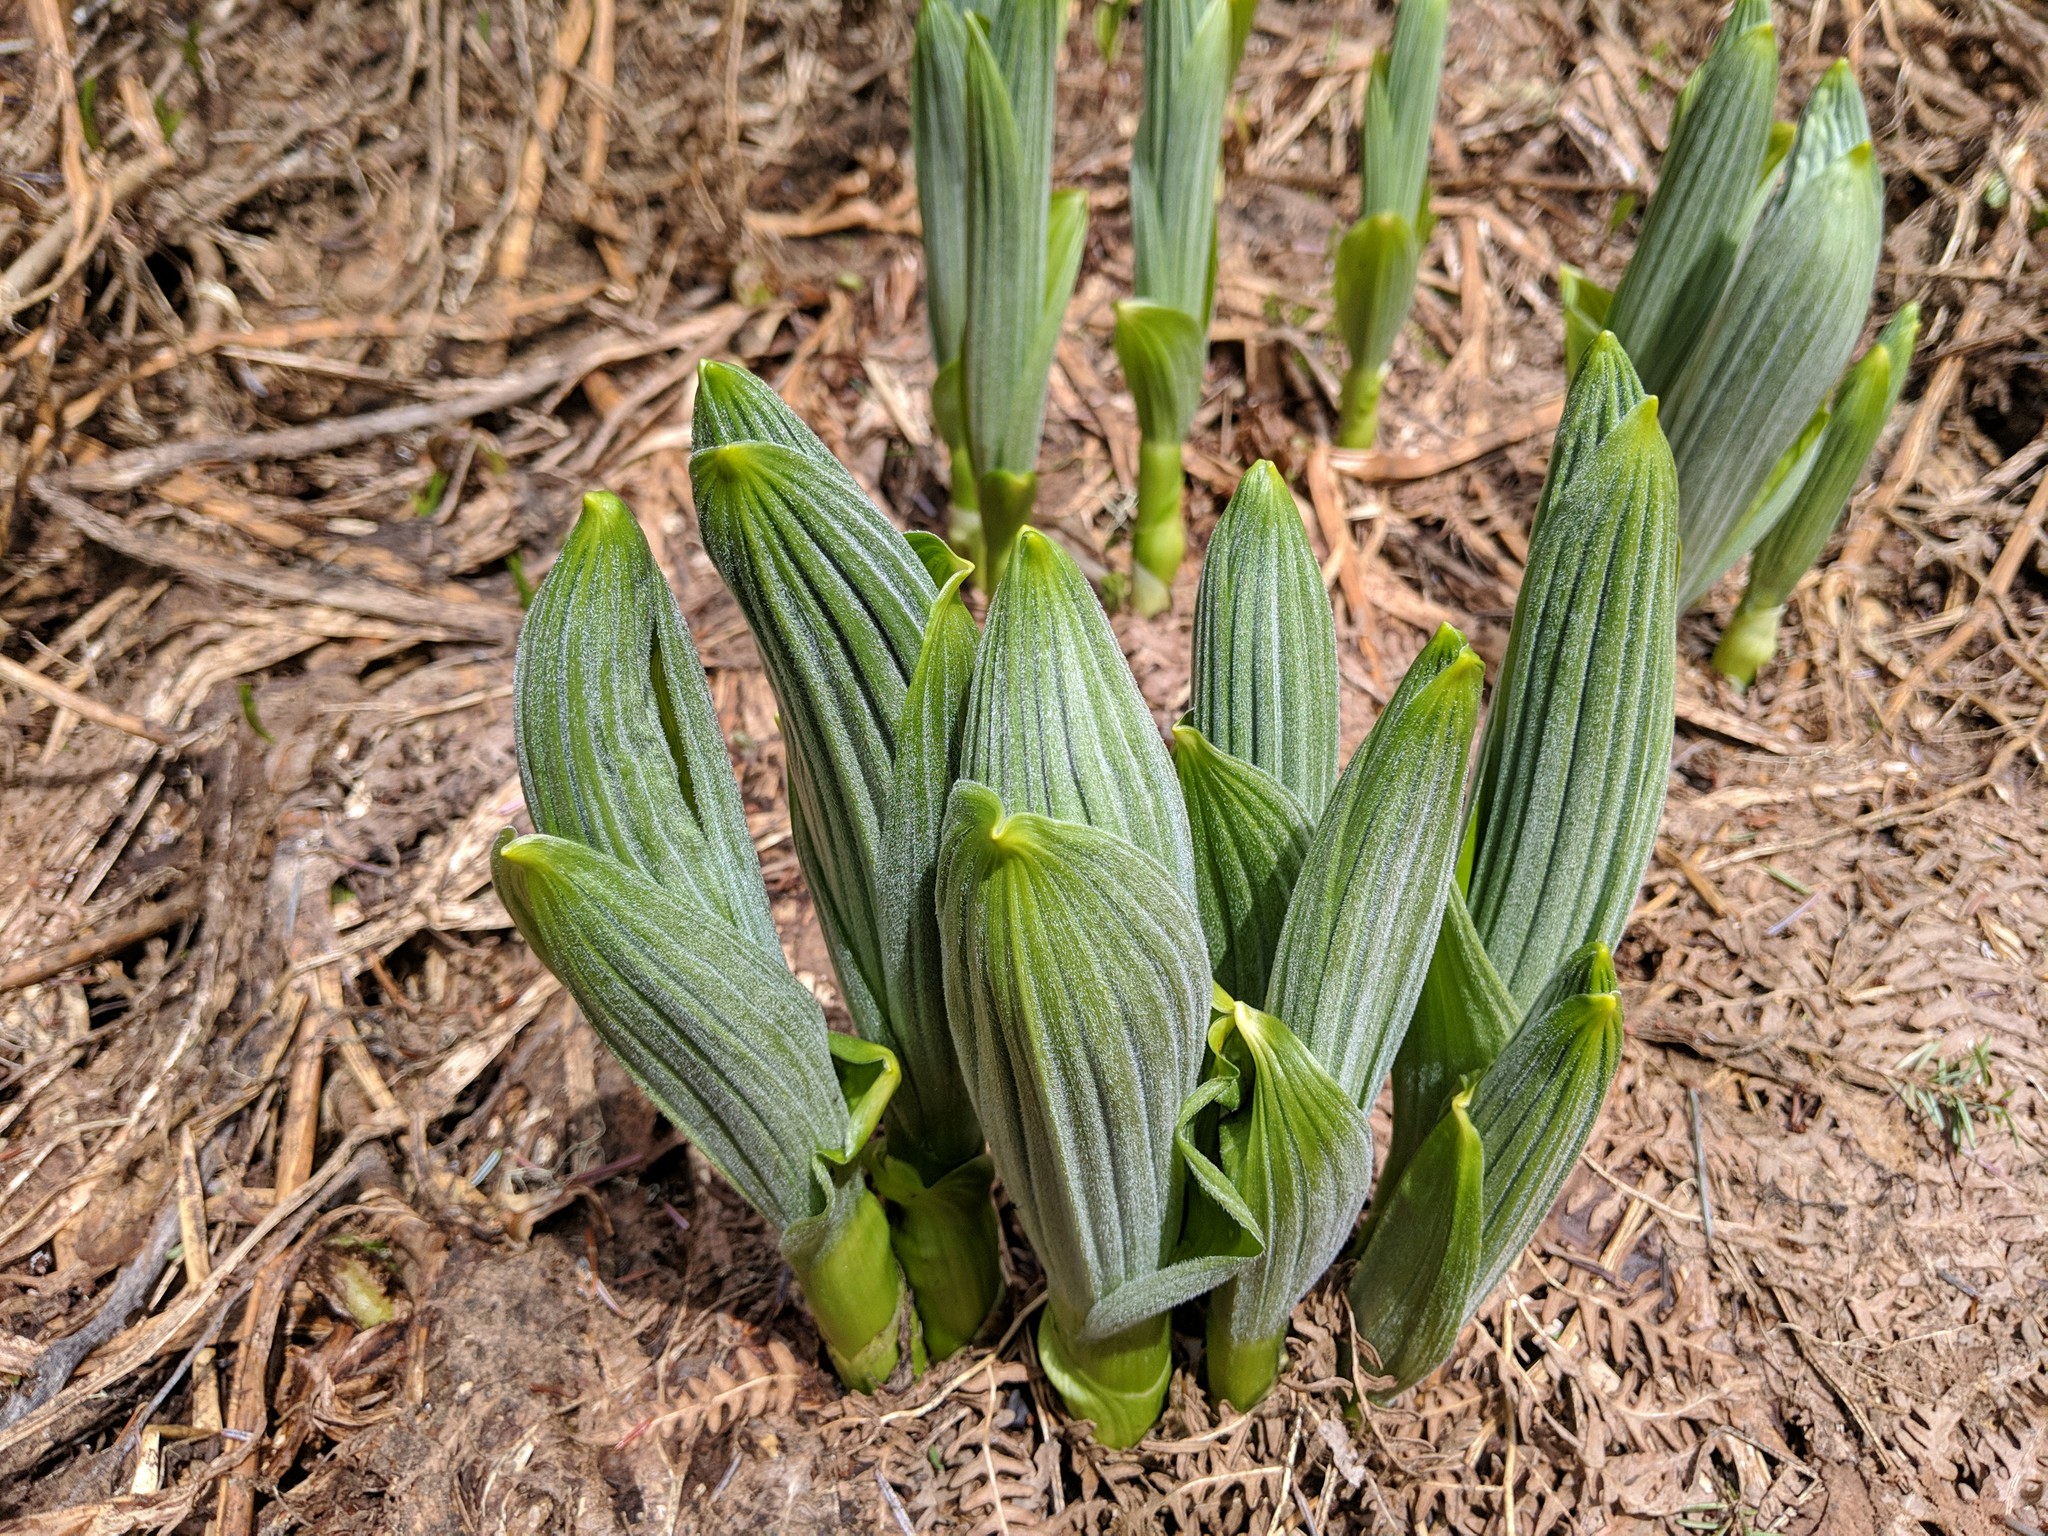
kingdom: Plantae
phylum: Tracheophyta
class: Liliopsida
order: Liliales
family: Melanthiaceae
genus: Veratrum
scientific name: Veratrum viride
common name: American false hellebore
